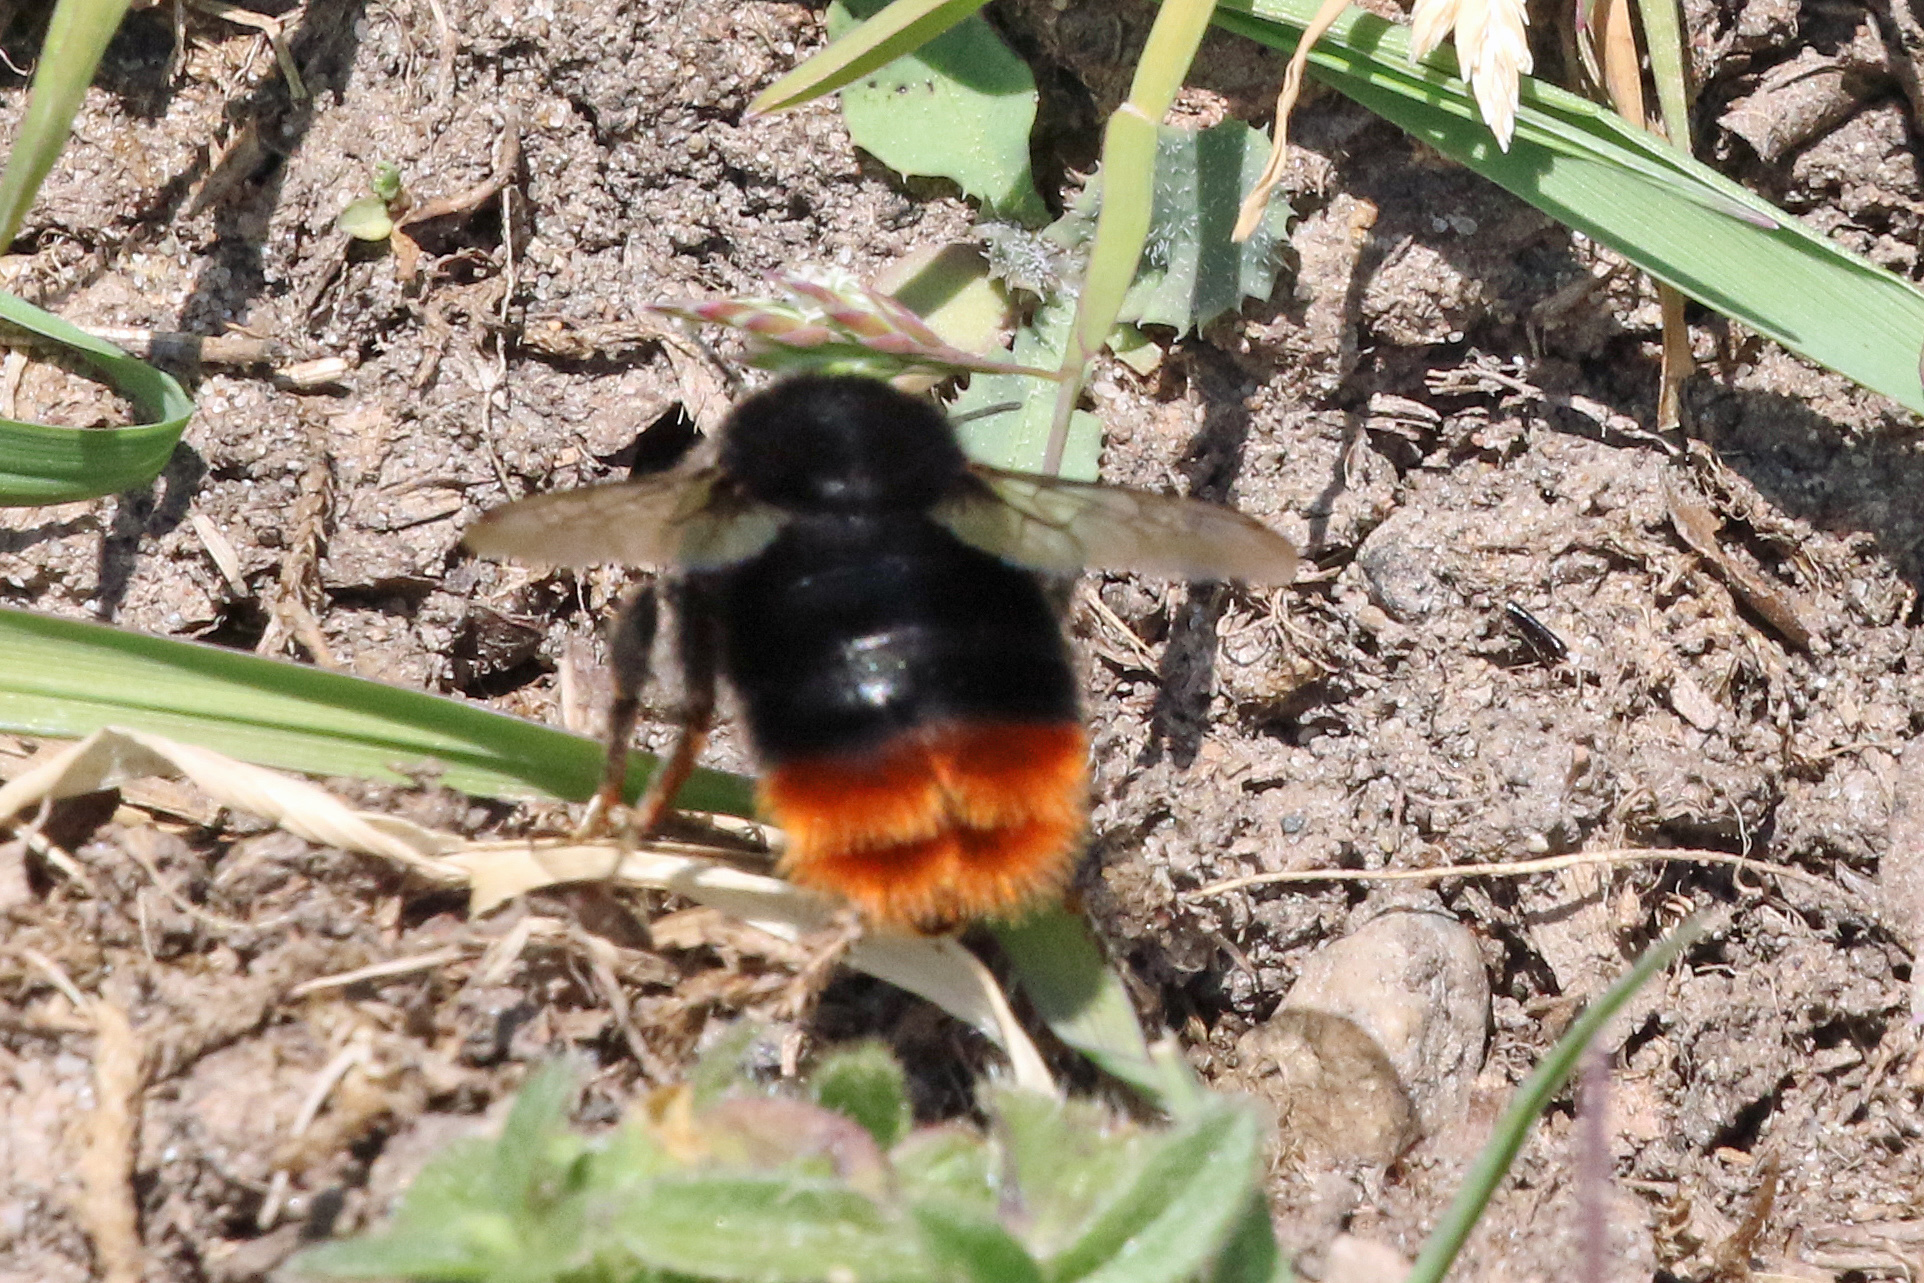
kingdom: Animalia
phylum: Arthropoda
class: Insecta
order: Hymenoptera
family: Apidae
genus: Bombus
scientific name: Bombus lapidarius
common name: Large red-tailed humble-bee
